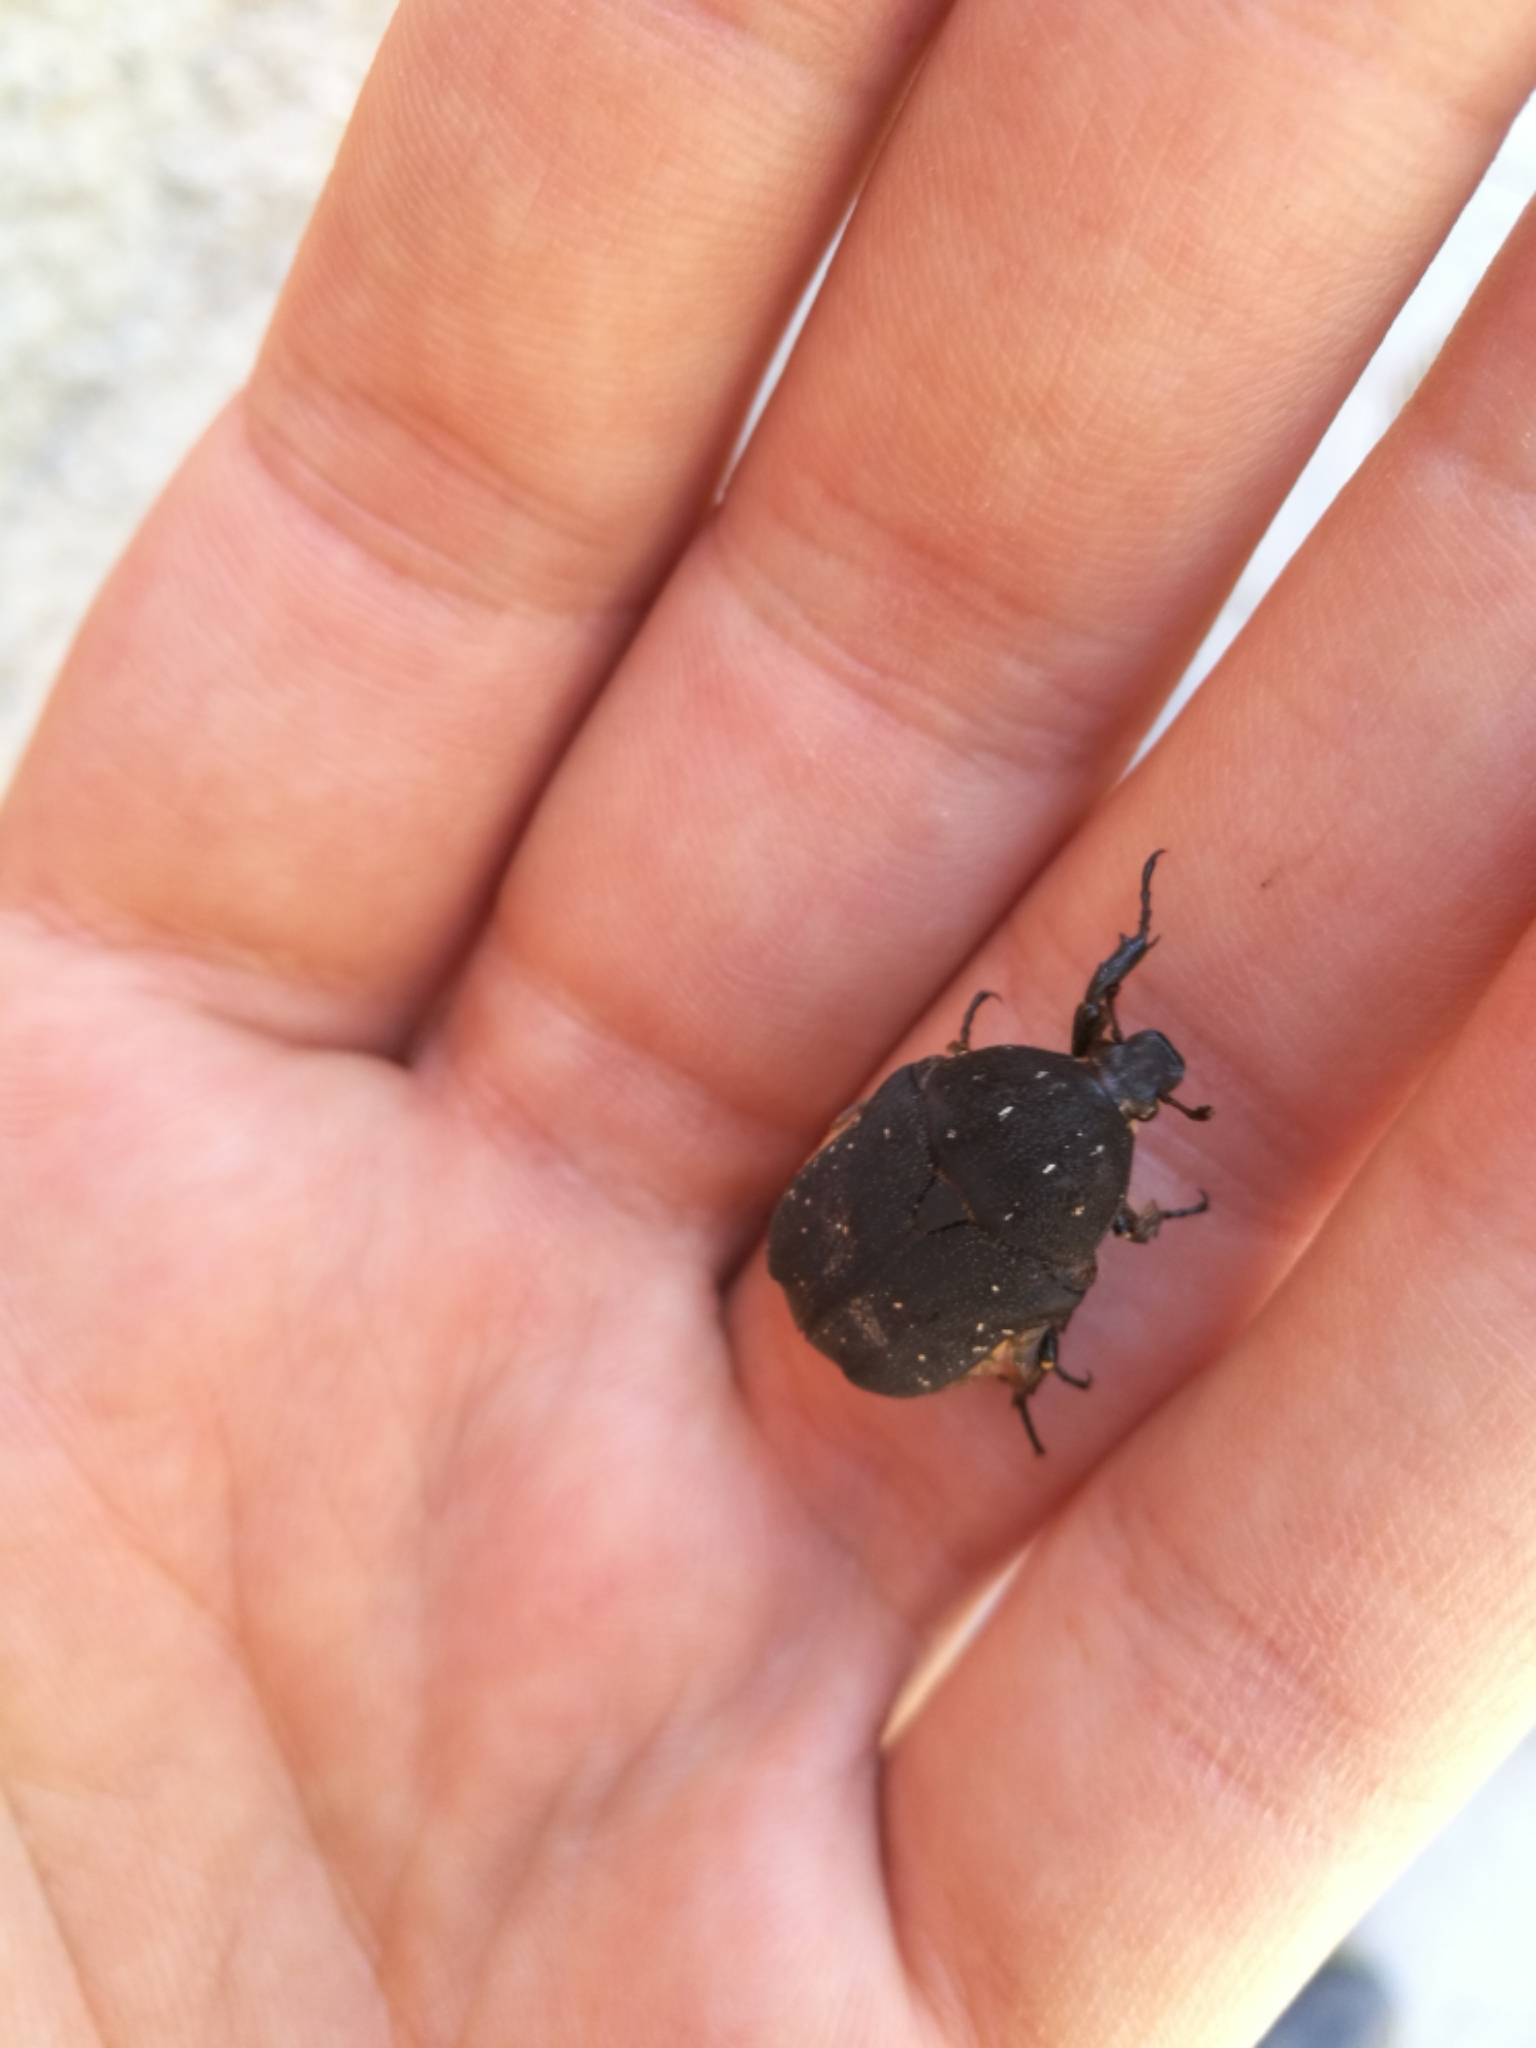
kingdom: Animalia
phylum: Arthropoda
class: Insecta
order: Coleoptera
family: Scarabaeidae
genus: Protaetia
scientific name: Protaetia morio
